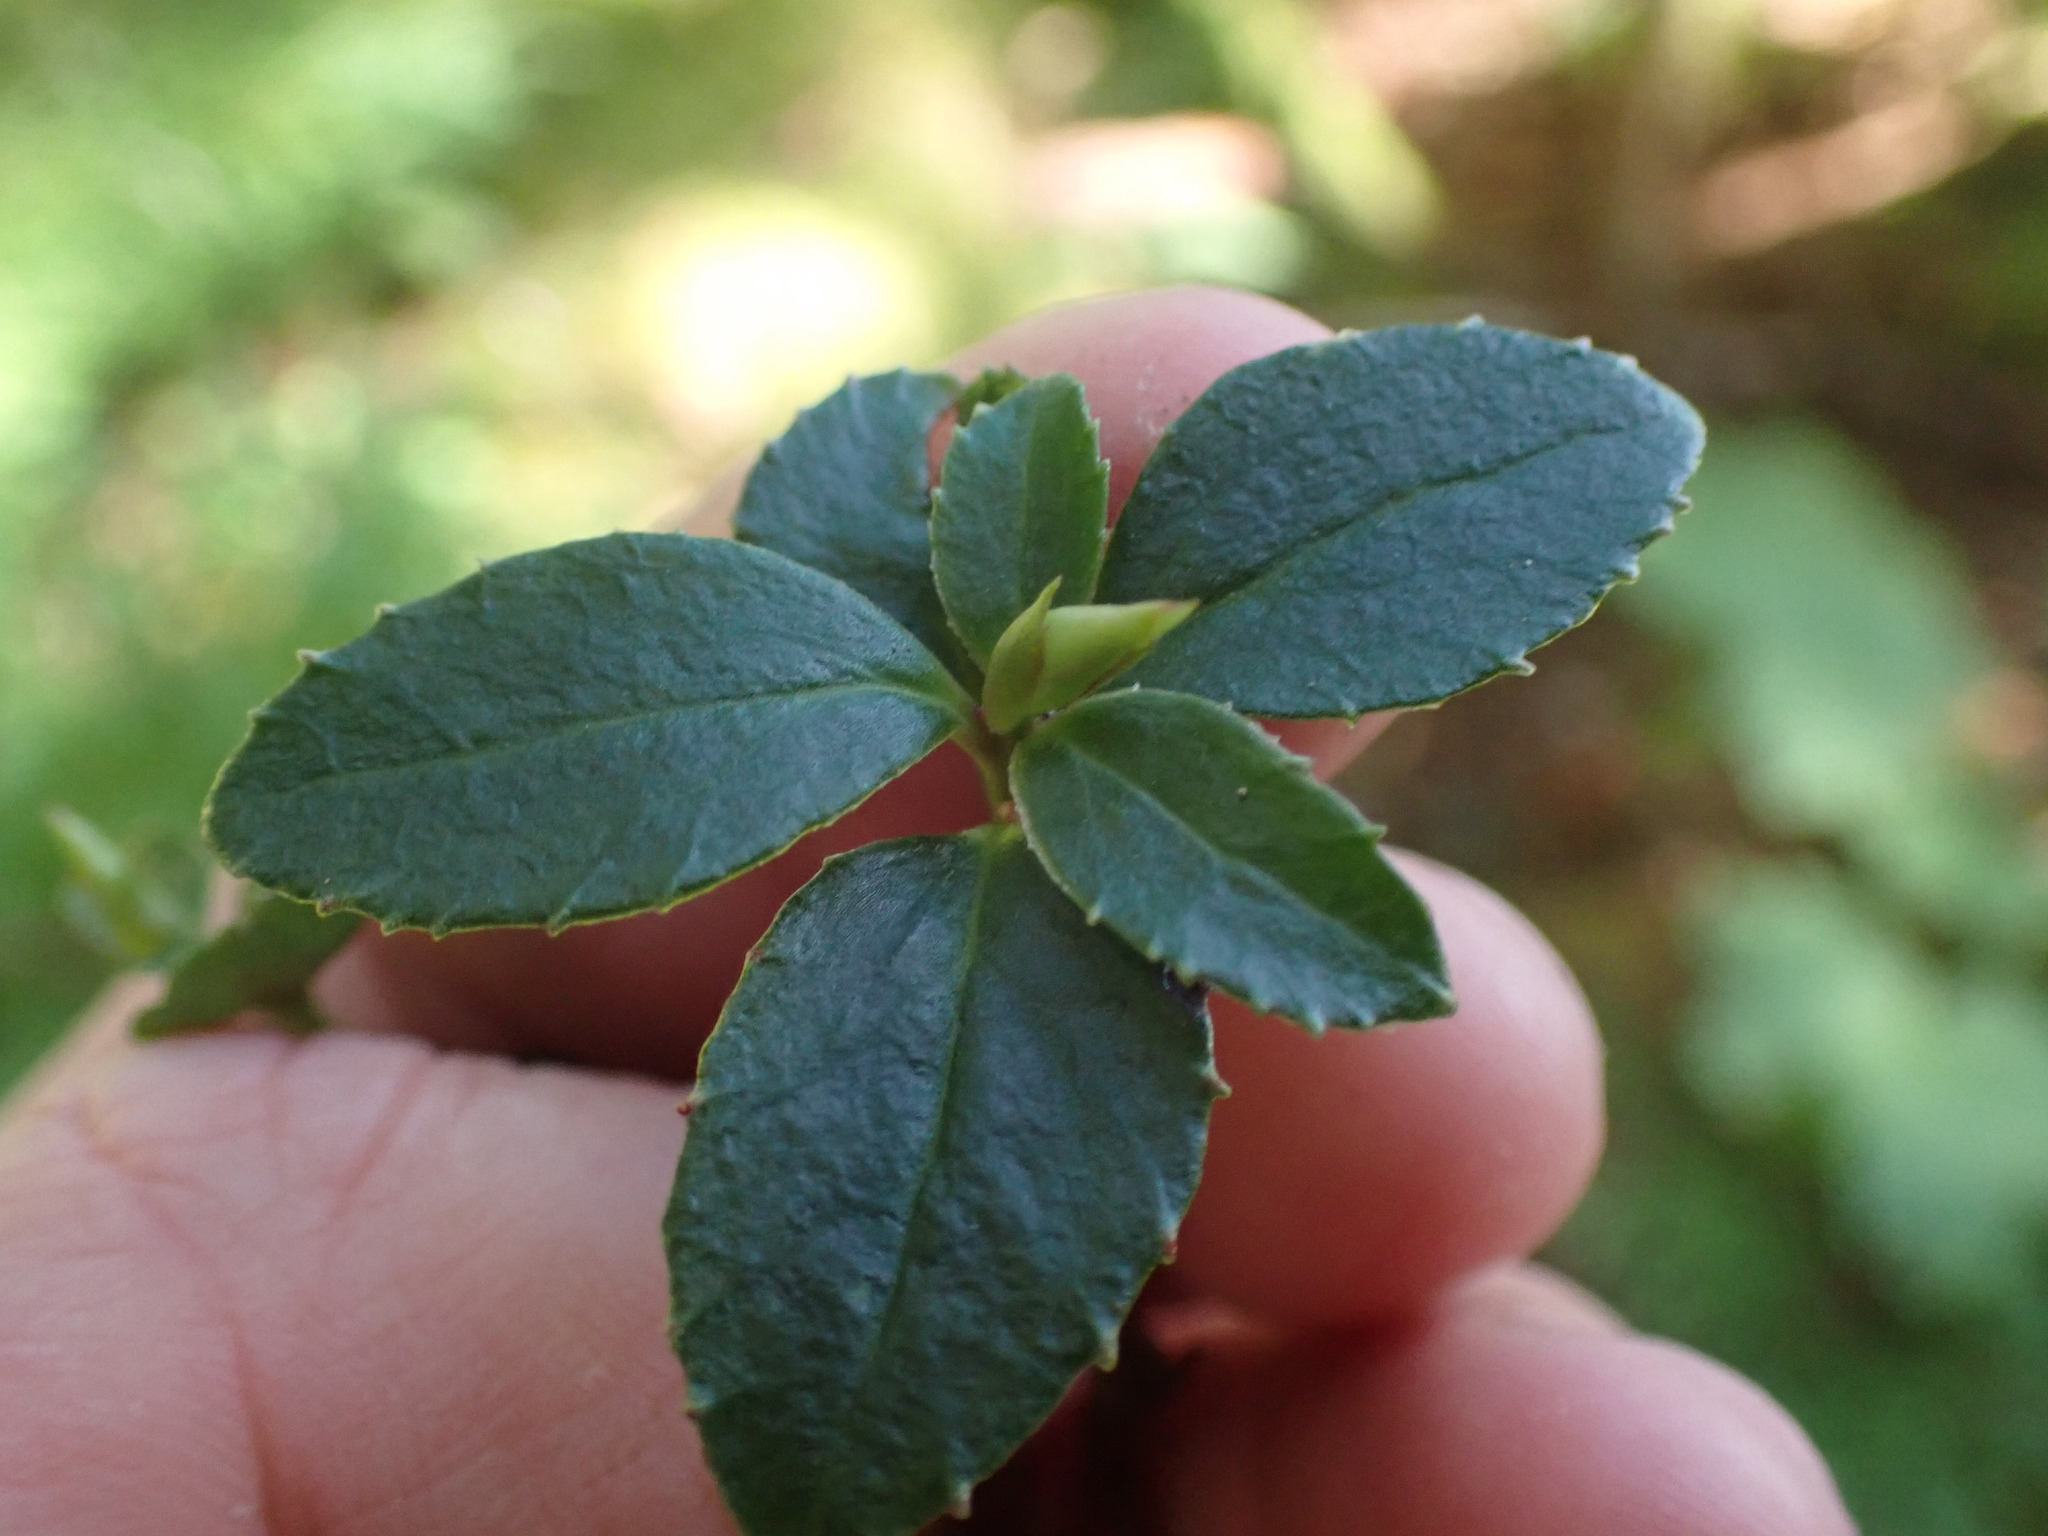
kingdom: Plantae
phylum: Tracheophyta
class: Magnoliopsida
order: Ericales
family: Ericaceae
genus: Chimaphila
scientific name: Chimaphila menziesii
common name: Menzies' pipsissewa
